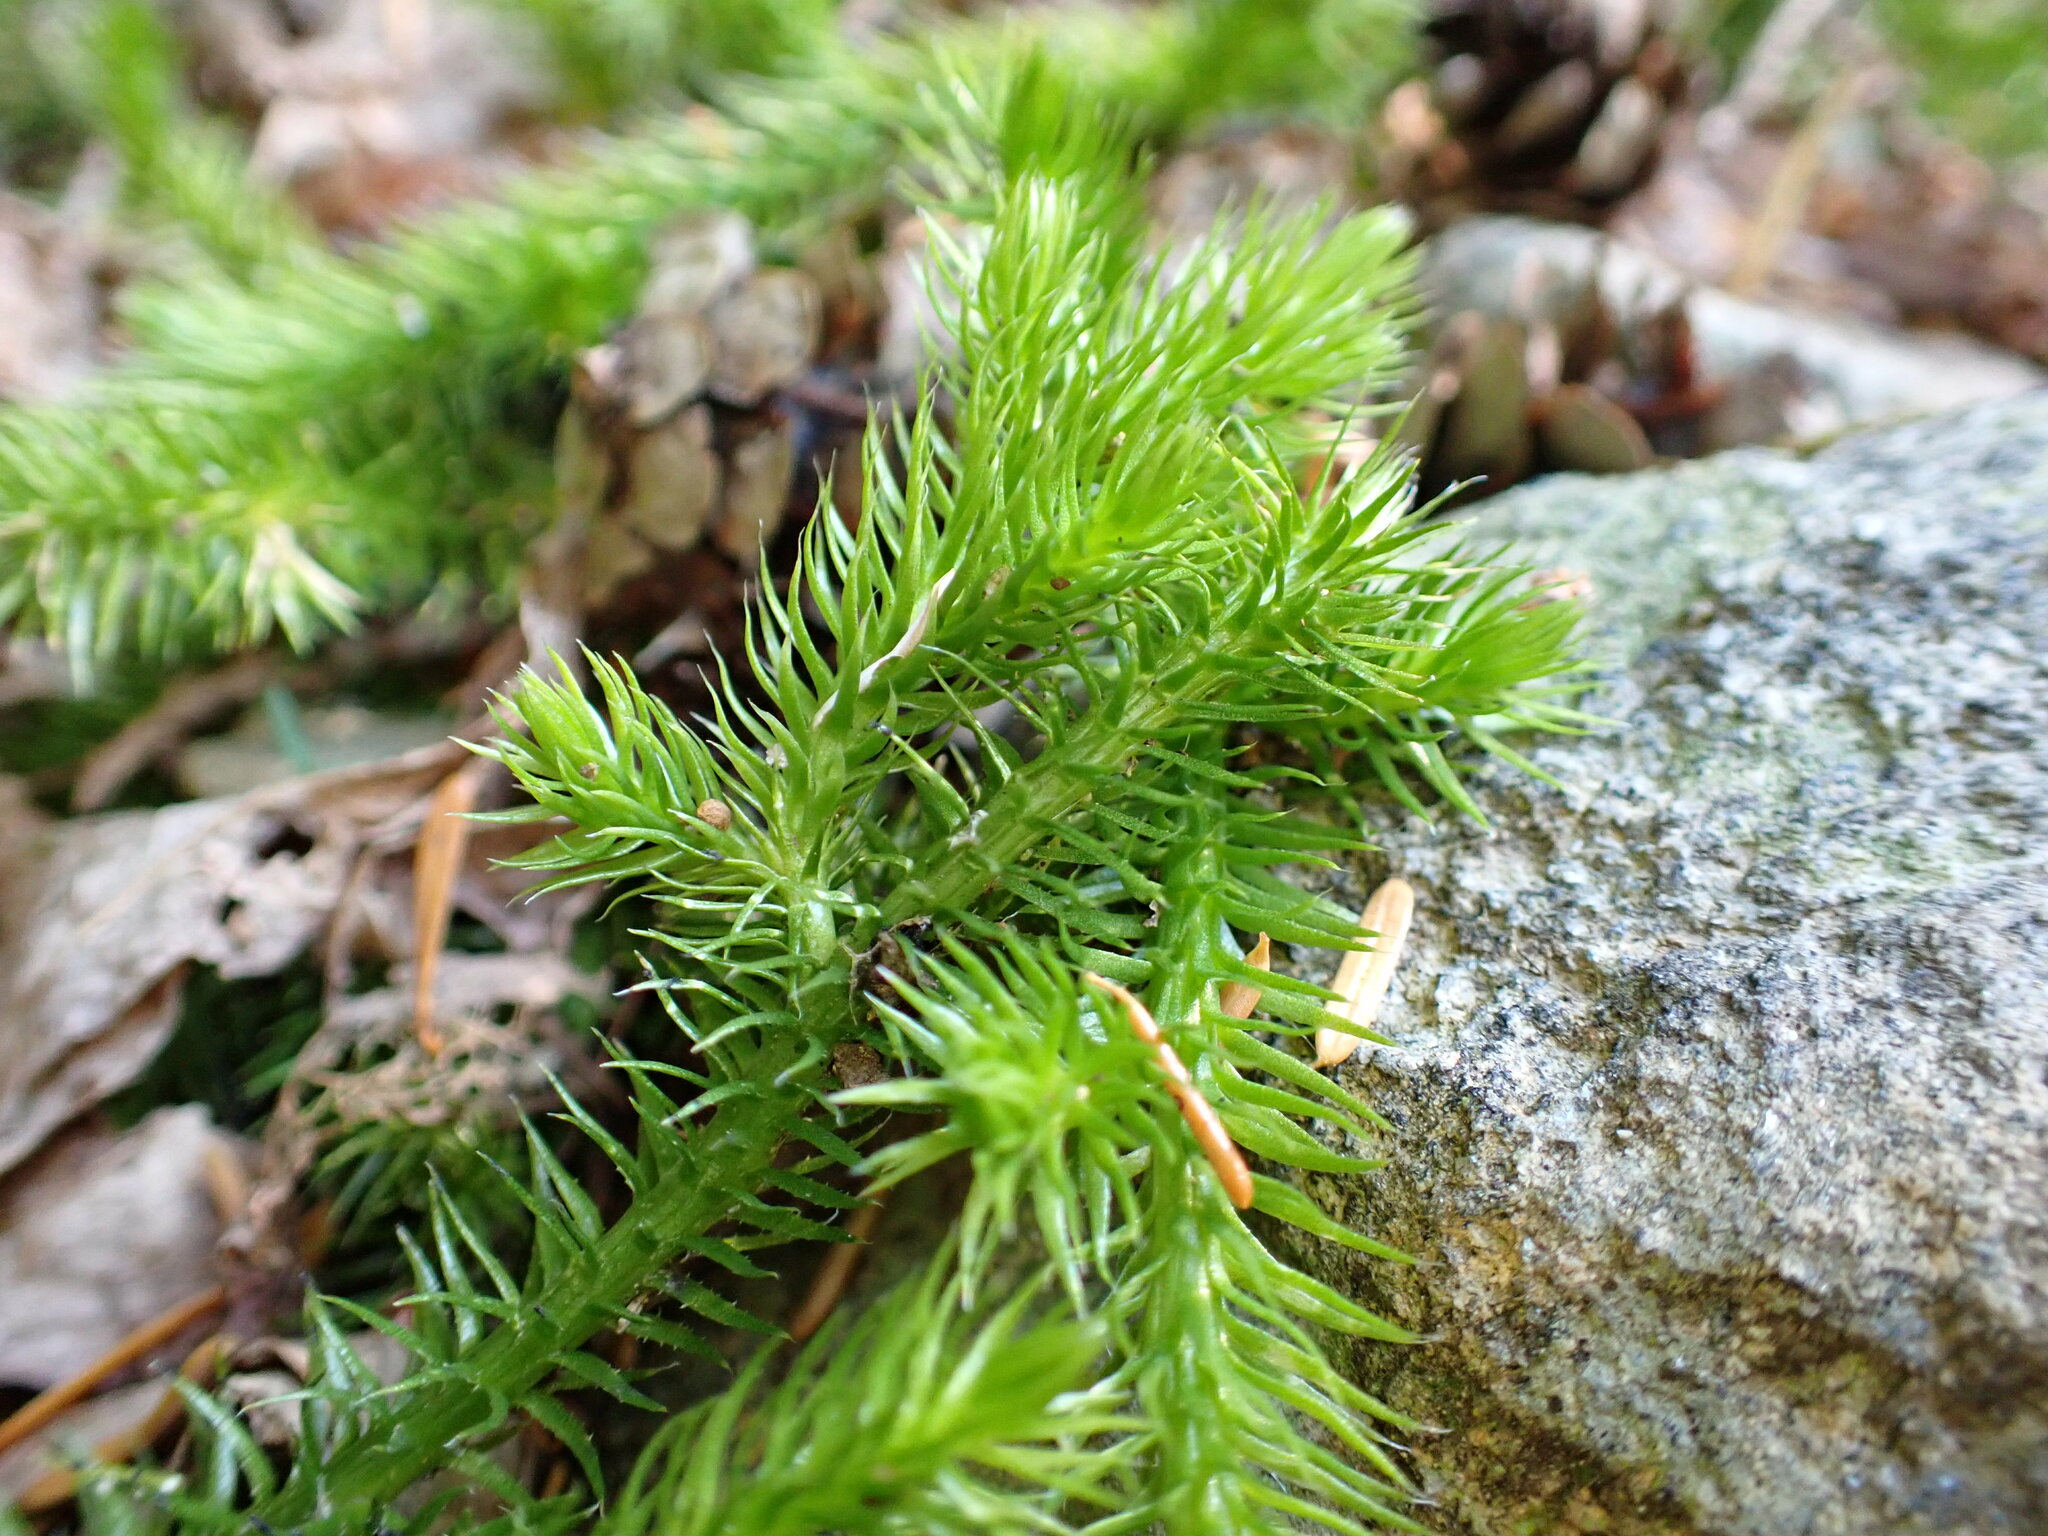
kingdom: Plantae
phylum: Tracheophyta
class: Lycopodiopsida
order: Lycopodiales
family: Lycopodiaceae
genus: Lycopodium
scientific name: Lycopodium clavatum
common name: Stag's-horn clubmoss
